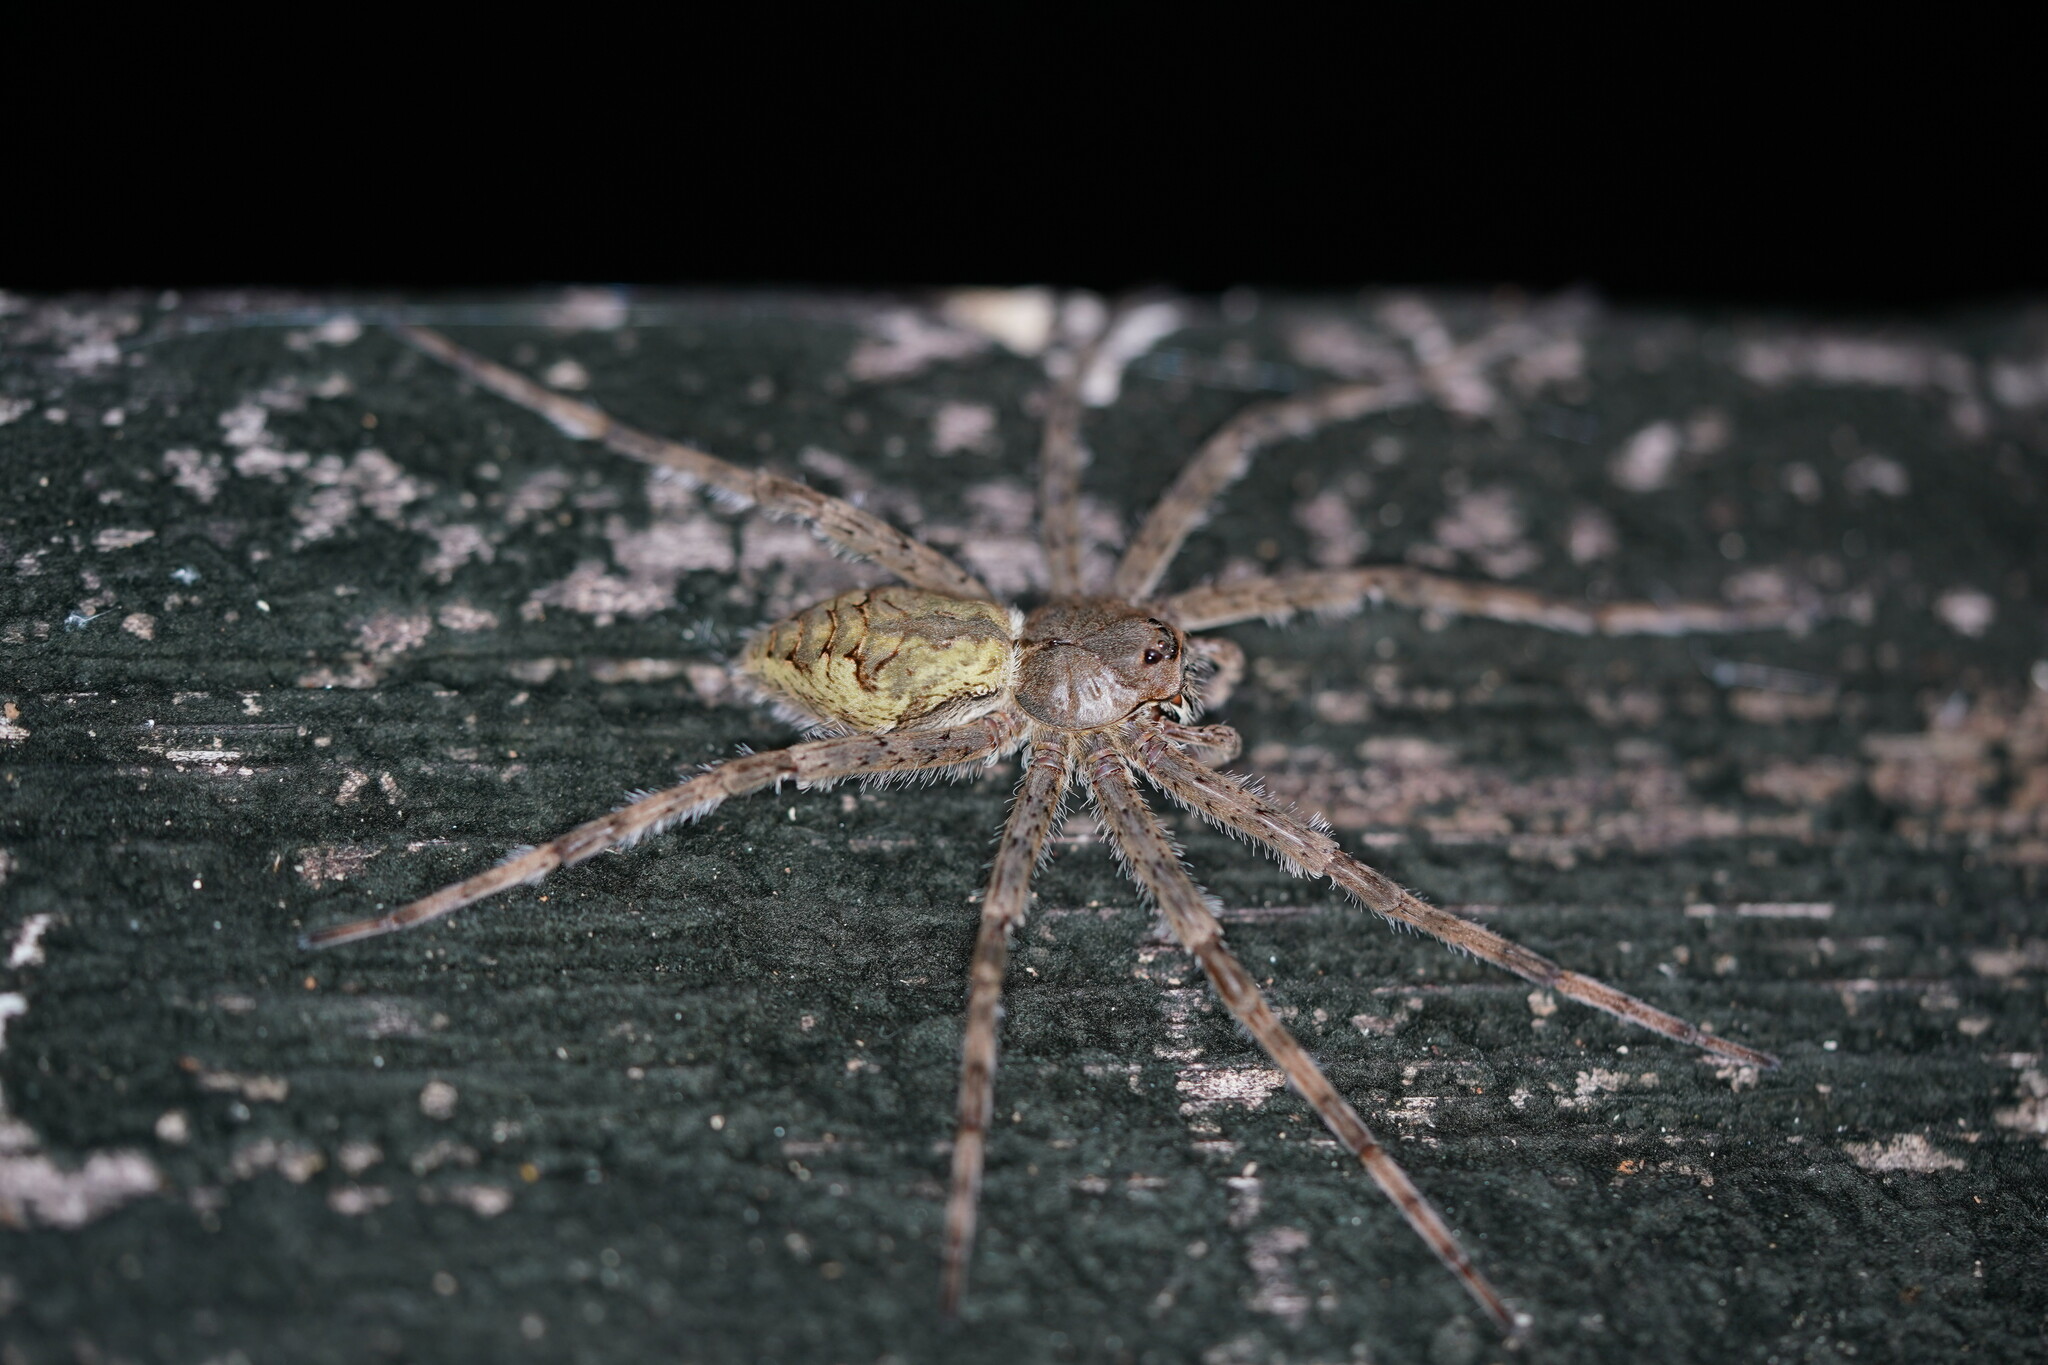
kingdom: Animalia
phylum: Arthropoda
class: Arachnida
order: Araneae
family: Pisauridae
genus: Dolomedes
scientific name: Dolomedes albineus
